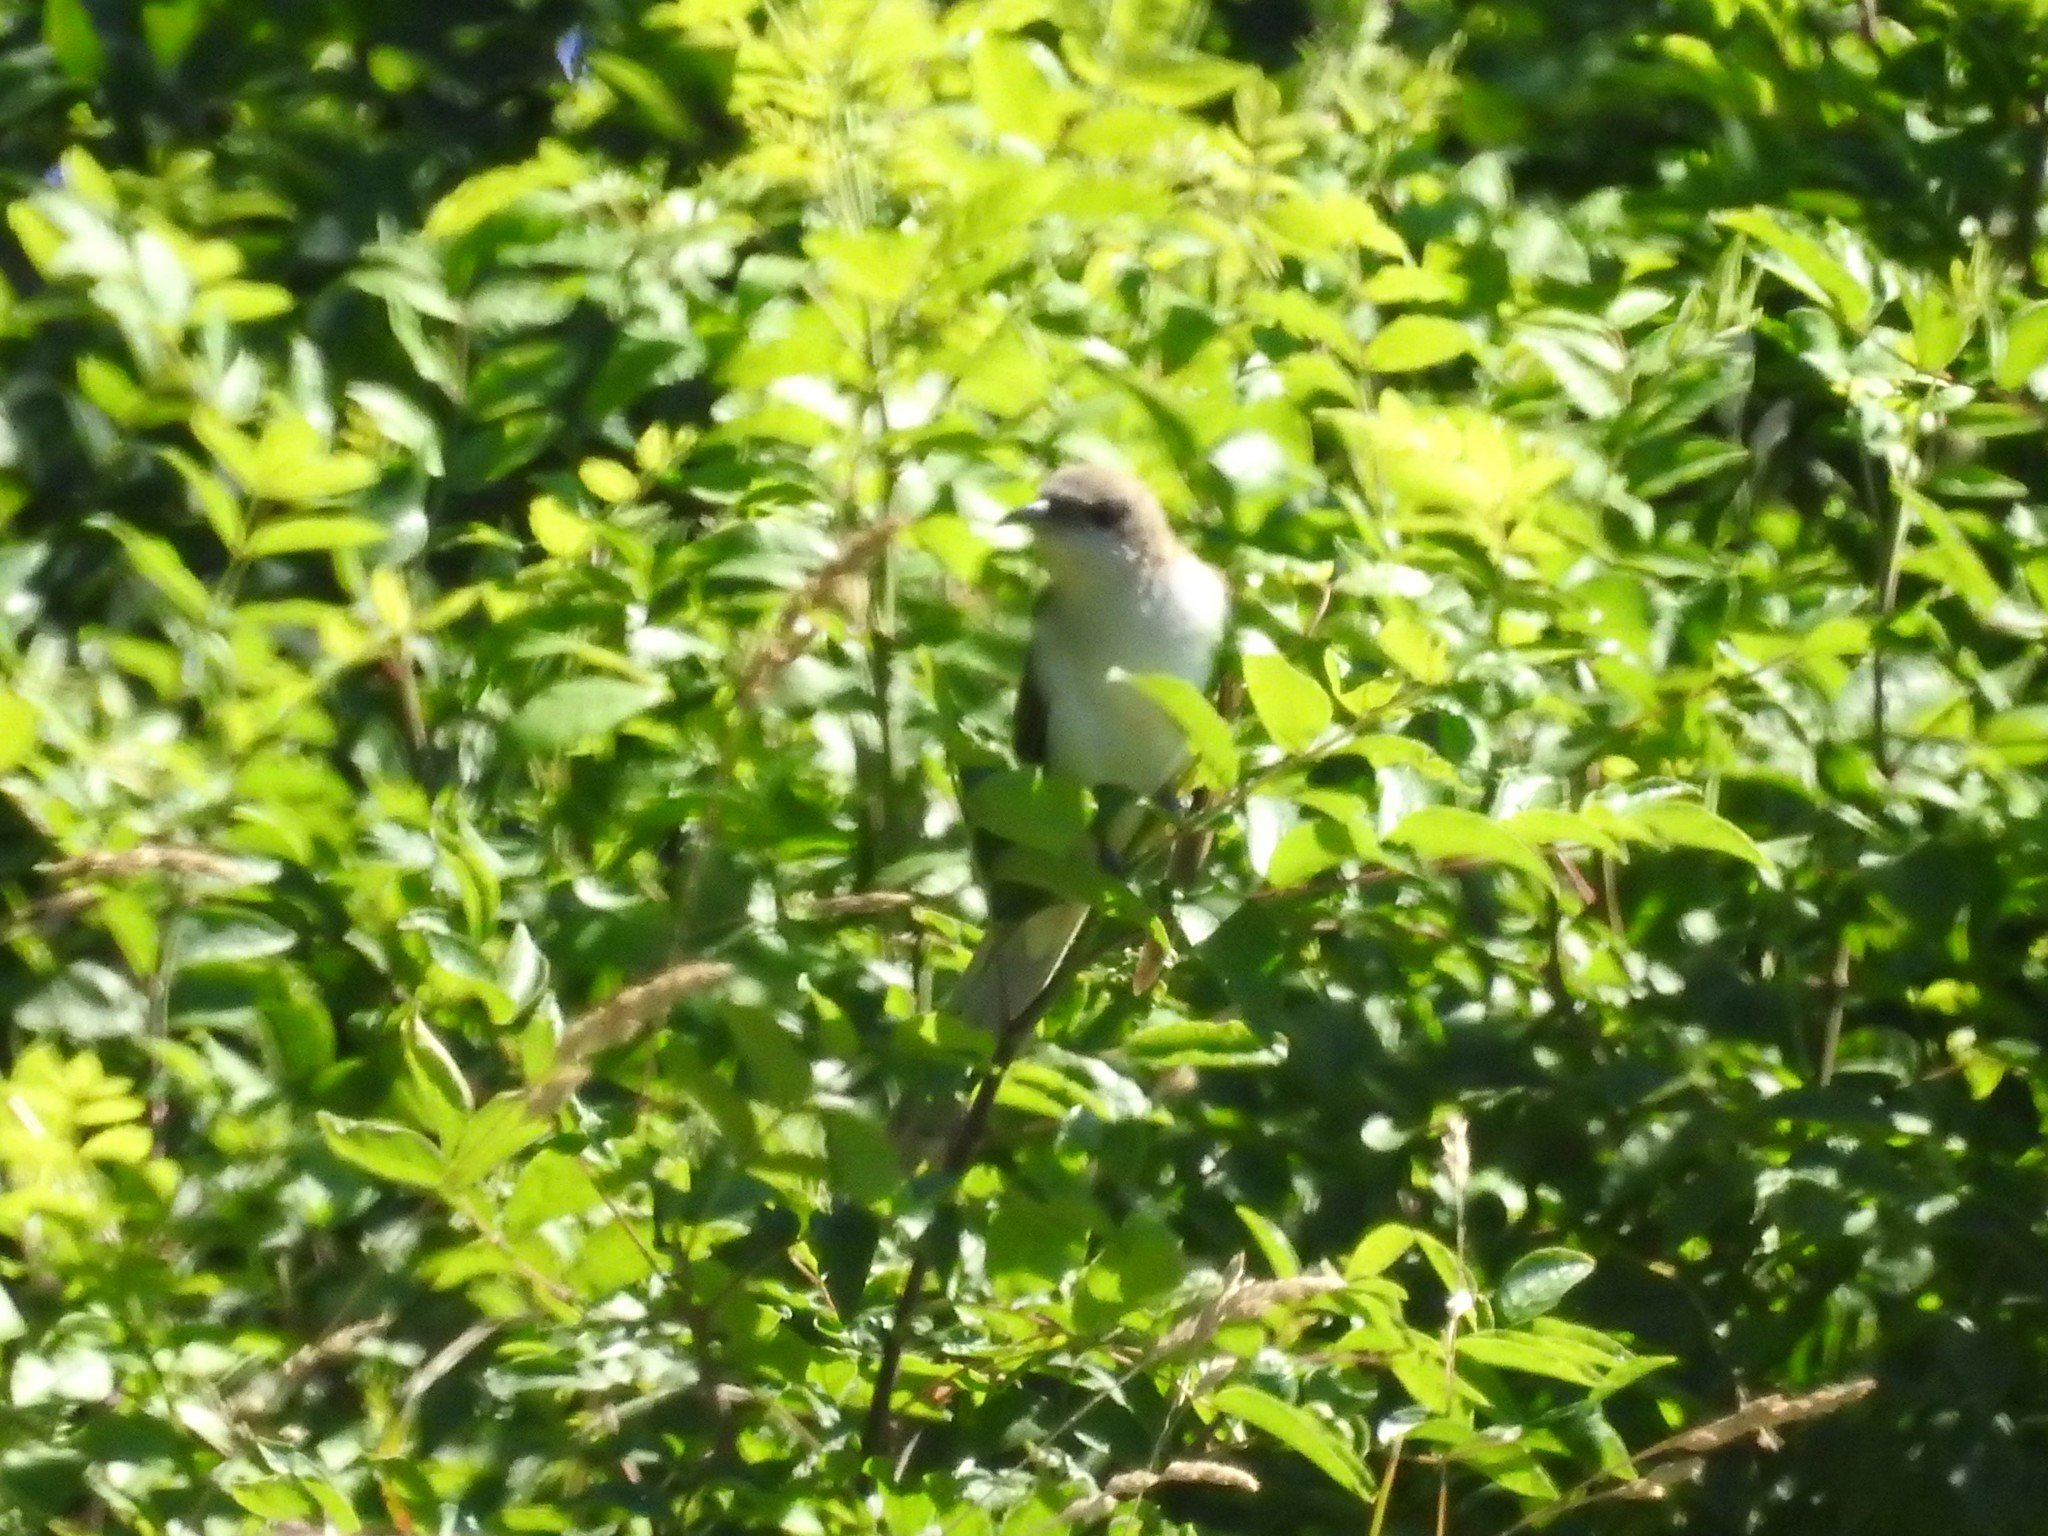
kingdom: Animalia
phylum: Chordata
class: Aves
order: Cuculiformes
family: Cuculidae
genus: Coccyzus
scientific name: Coccyzus erythropthalmus
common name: Black-billed cuckoo
